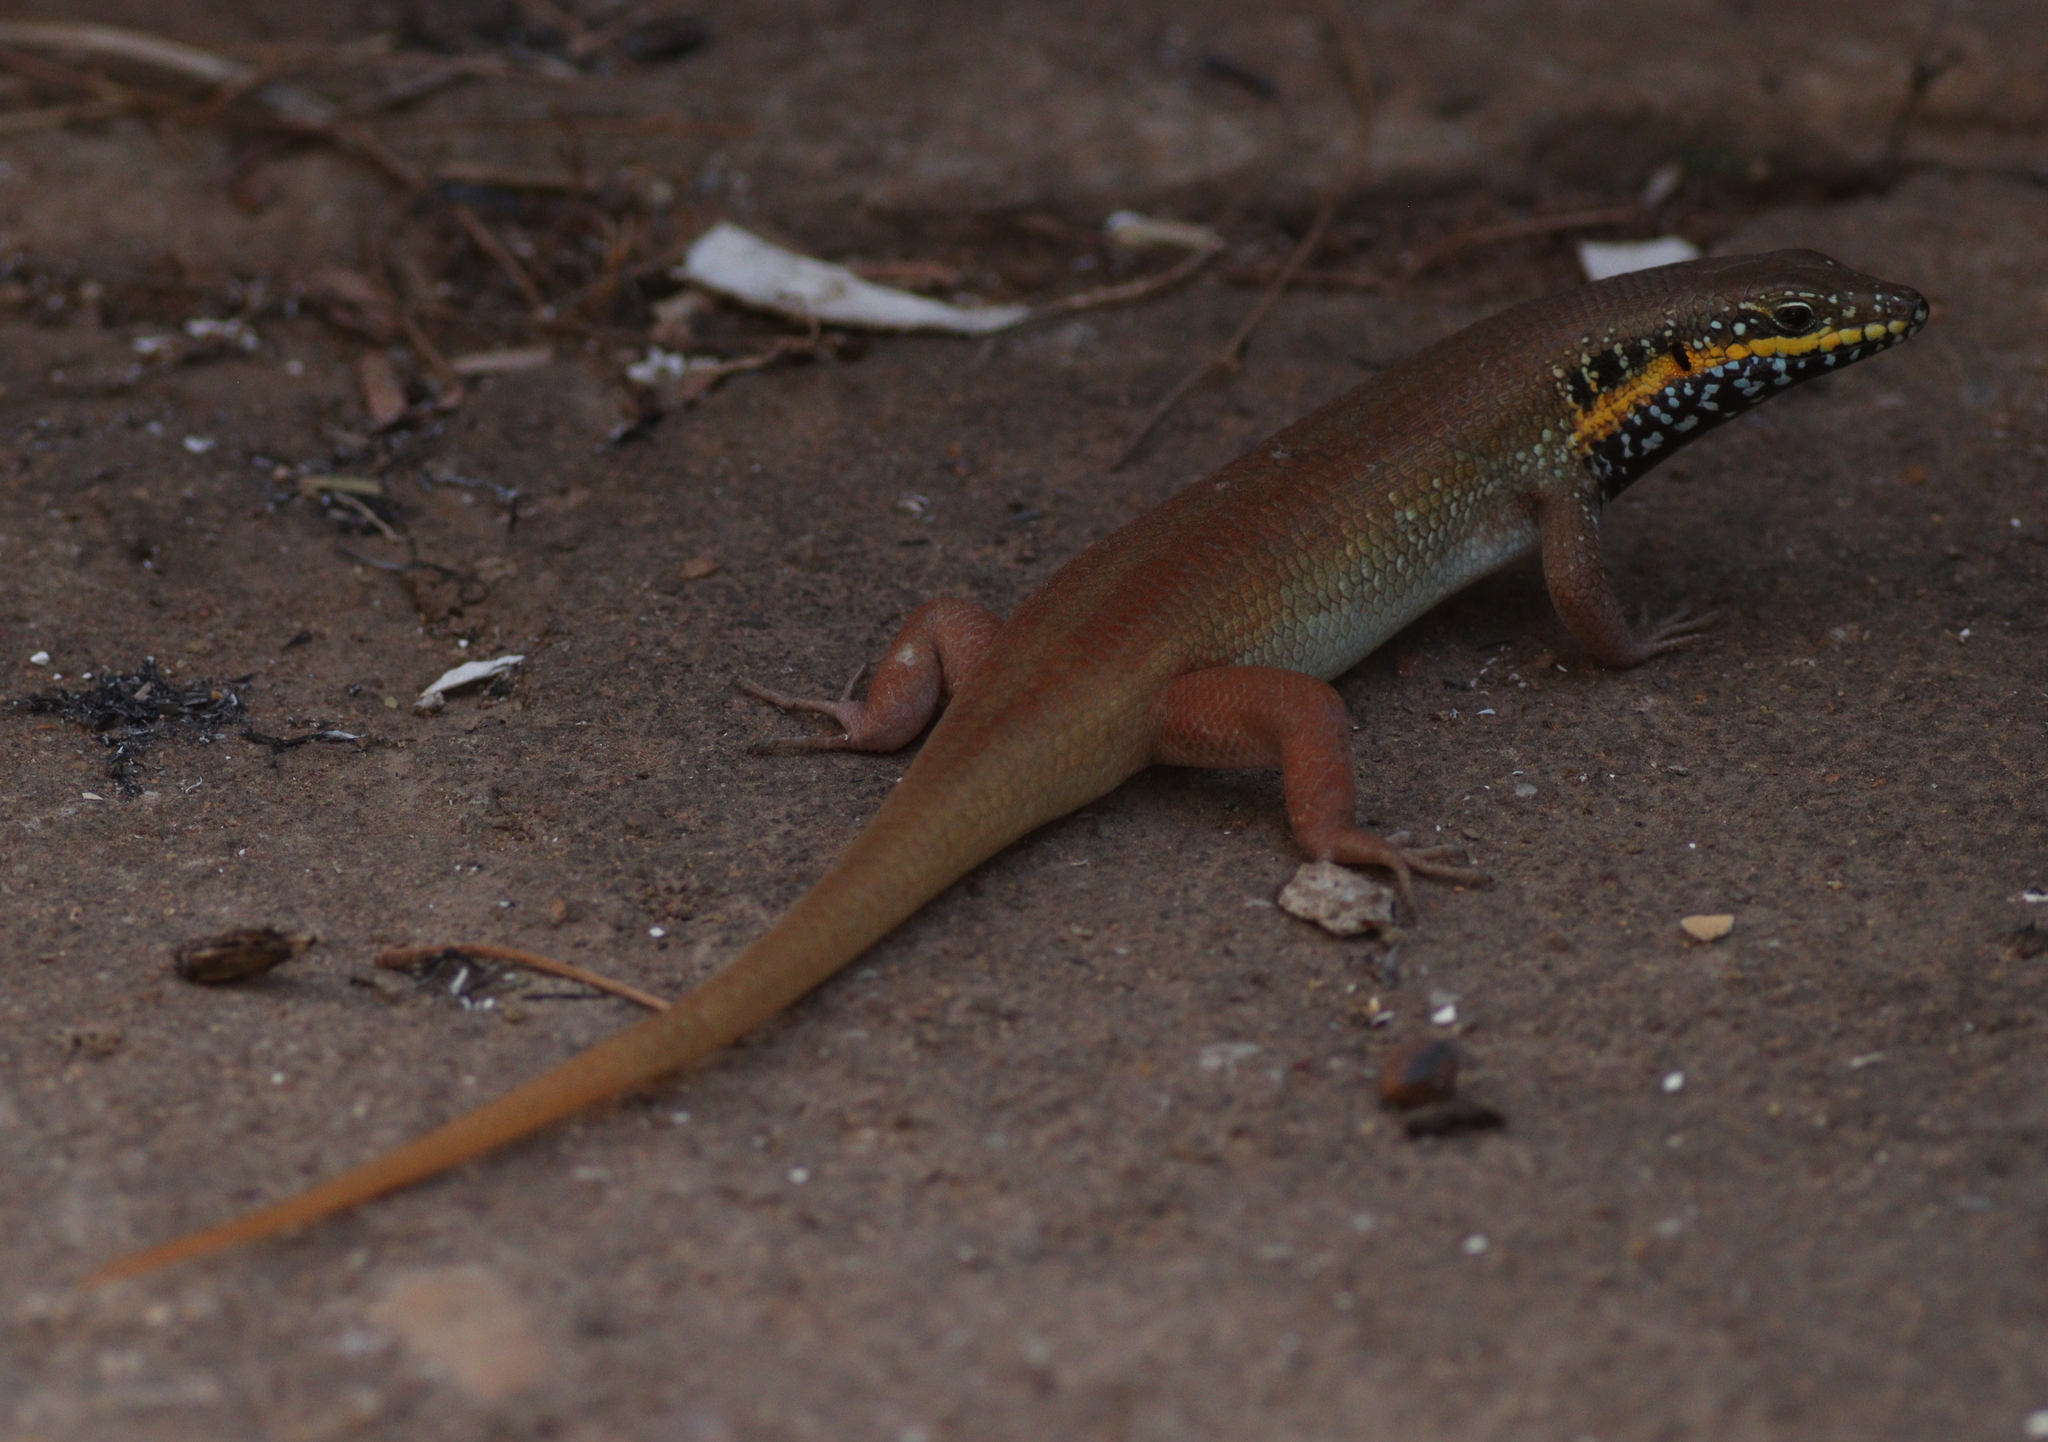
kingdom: Animalia
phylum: Chordata
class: Squamata
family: Scincidae
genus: Trachylepis
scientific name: Trachylepis quinquetaeniata
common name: African five-lined skink
